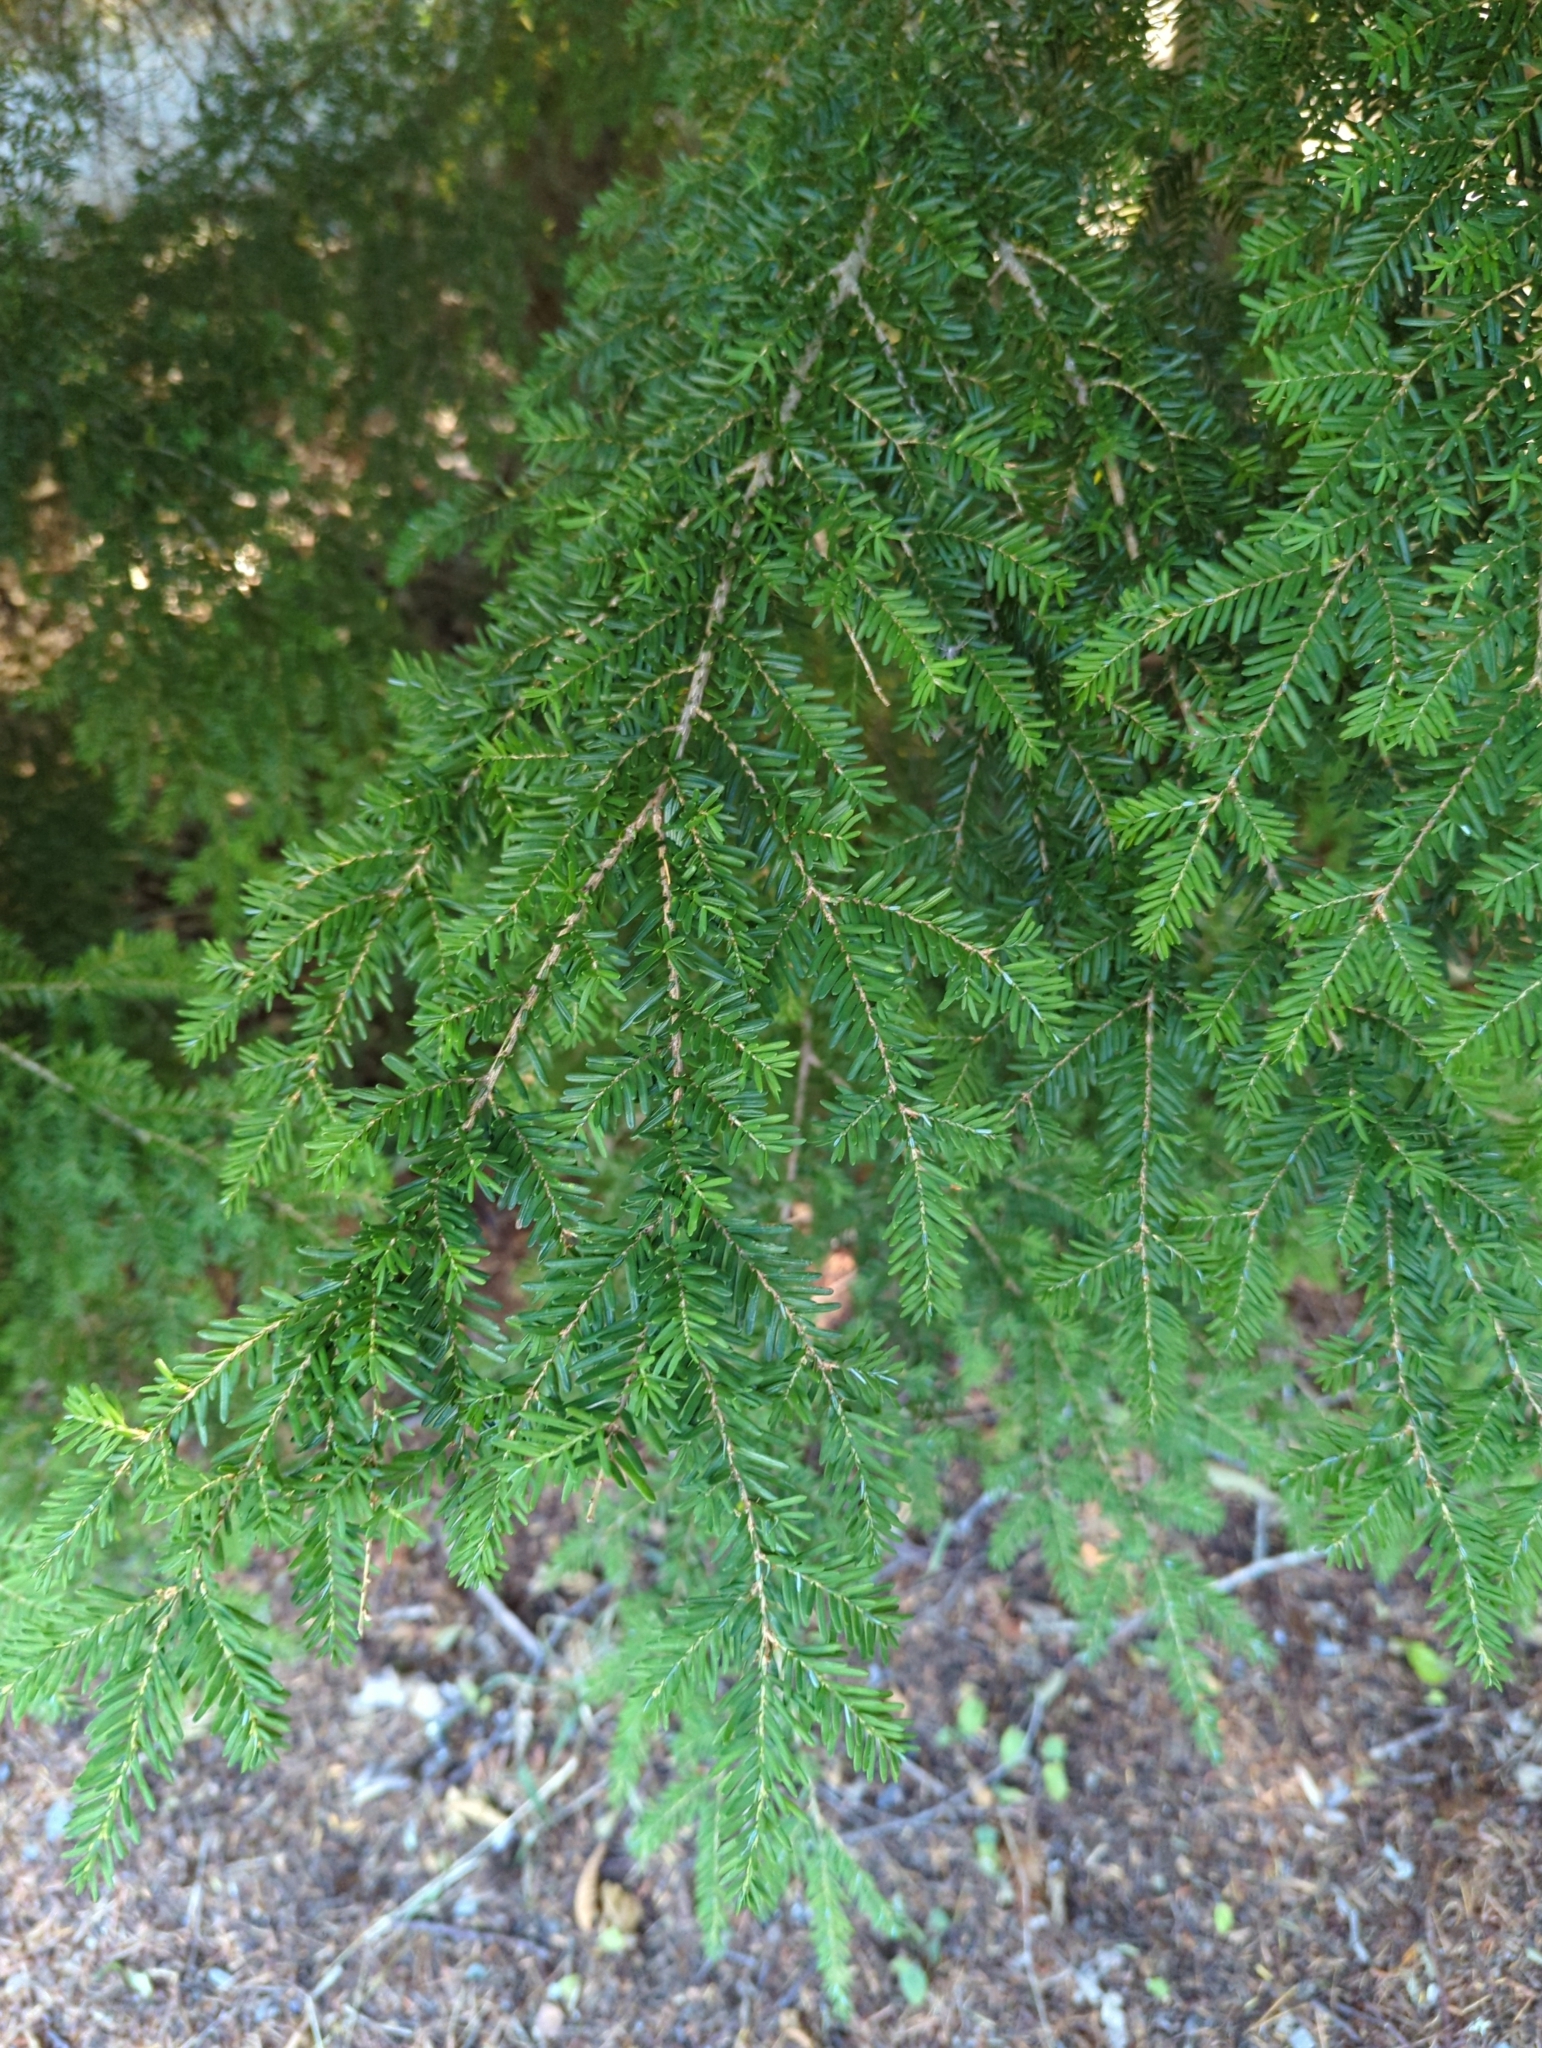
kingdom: Plantae
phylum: Tracheophyta
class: Pinopsida
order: Pinales
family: Pinaceae
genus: Tsuga
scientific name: Tsuga heterophylla
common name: Western hemlock
